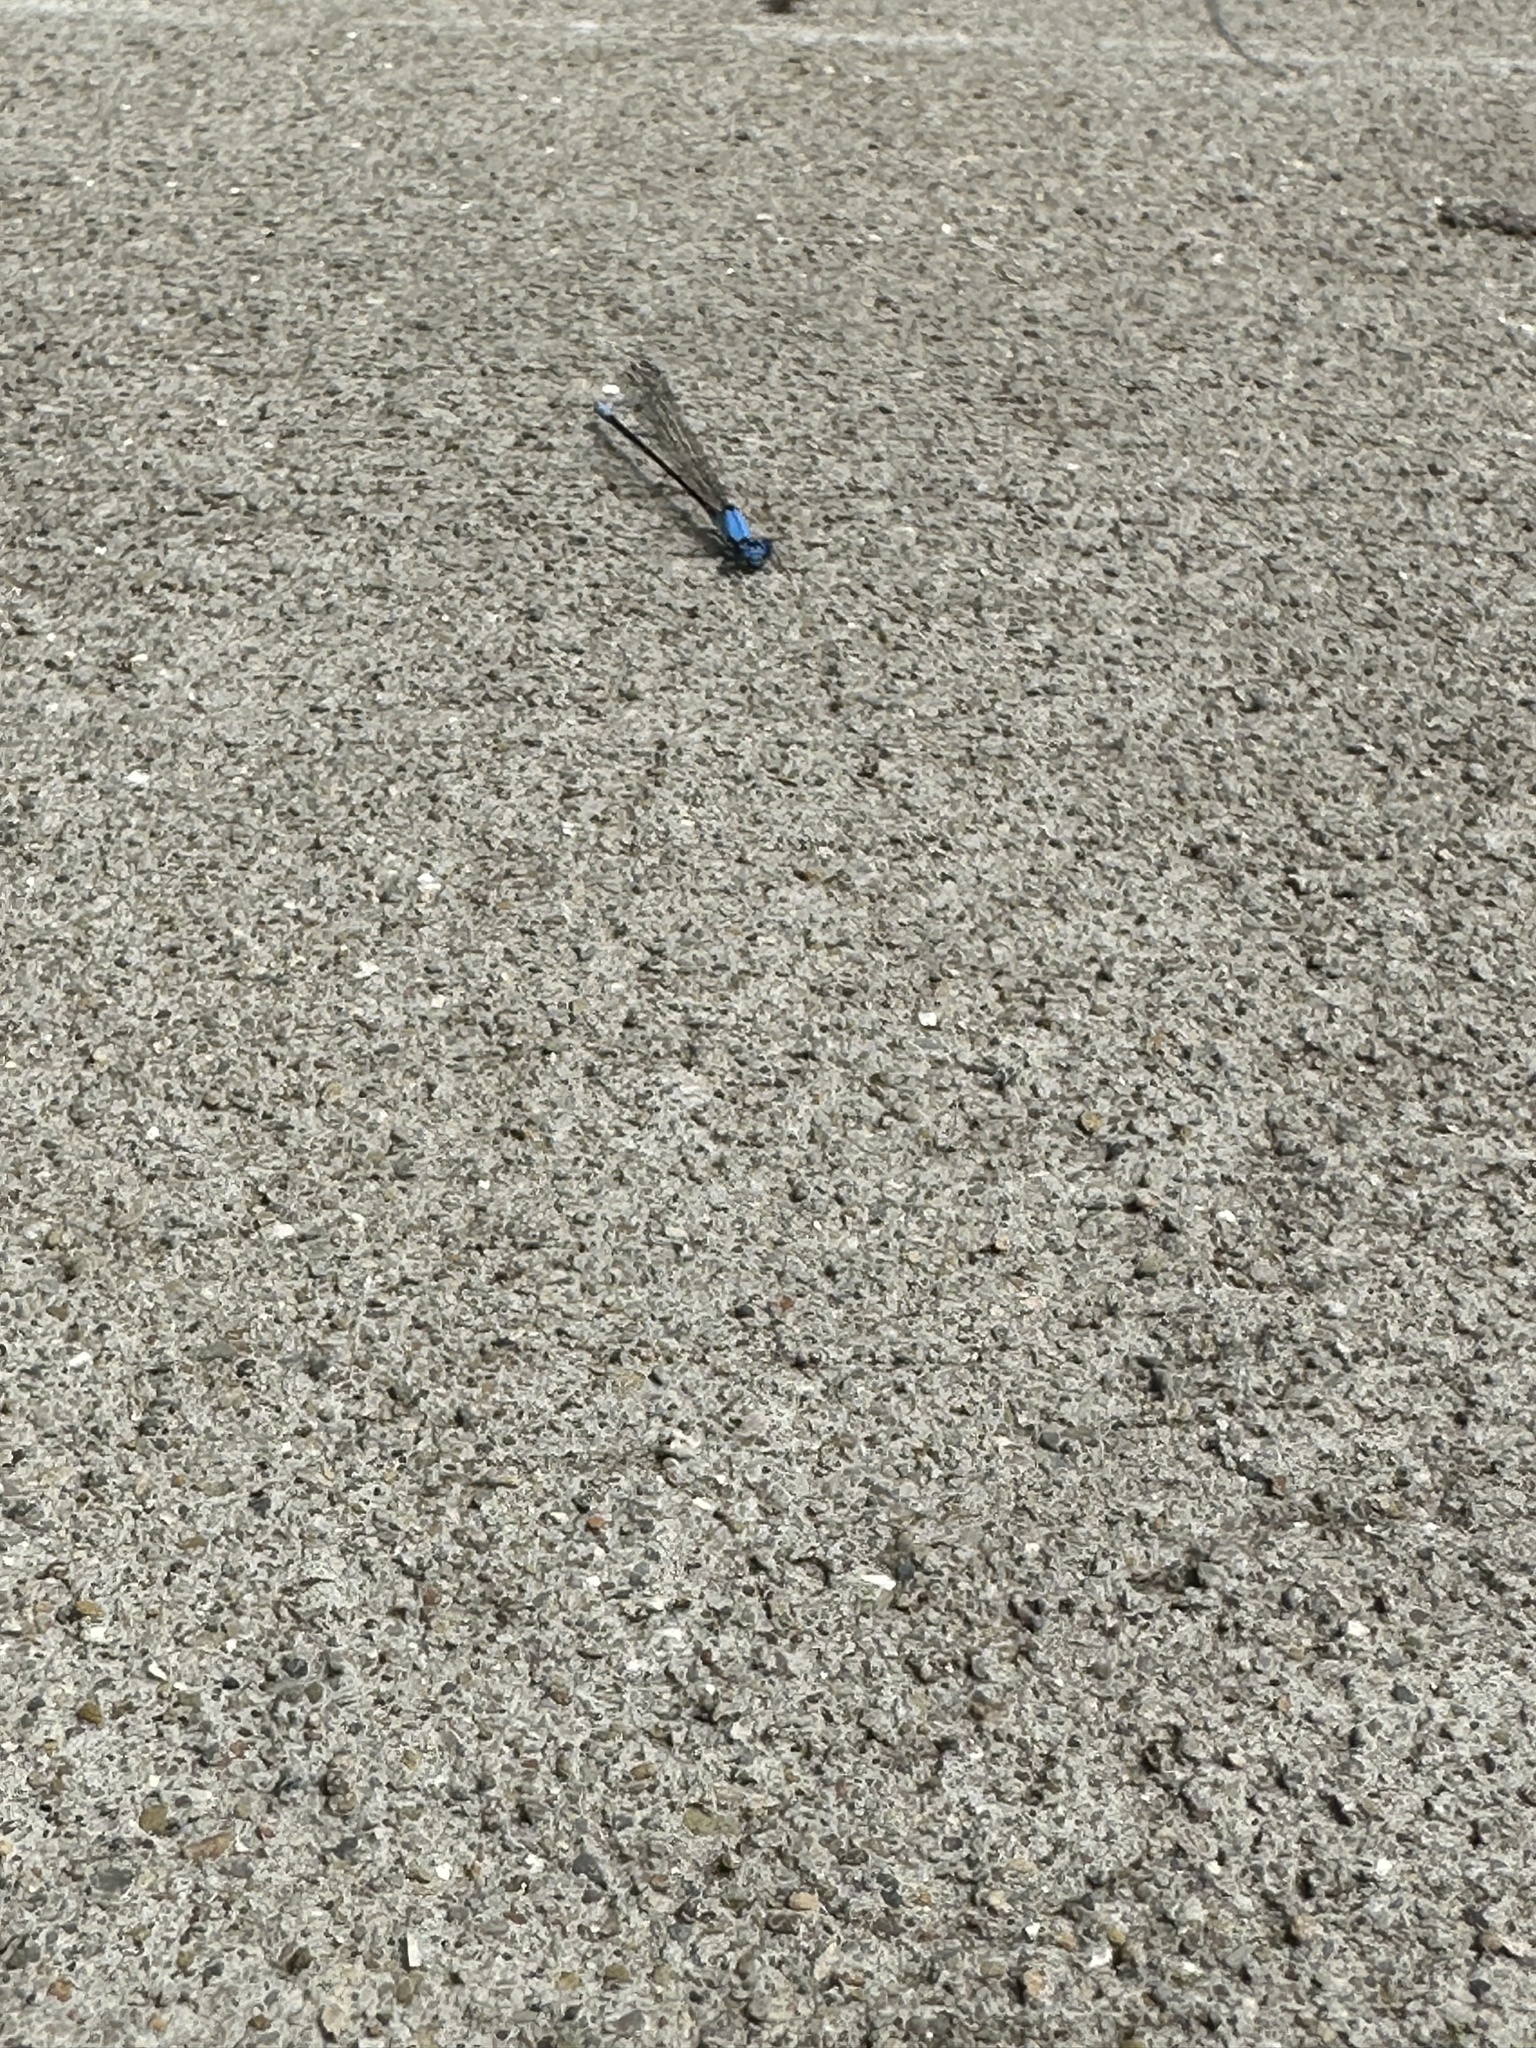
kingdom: Animalia
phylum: Arthropoda
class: Insecta
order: Odonata
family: Coenagrionidae
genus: Argia
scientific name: Argia apicalis
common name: Blue-fronted dancer
